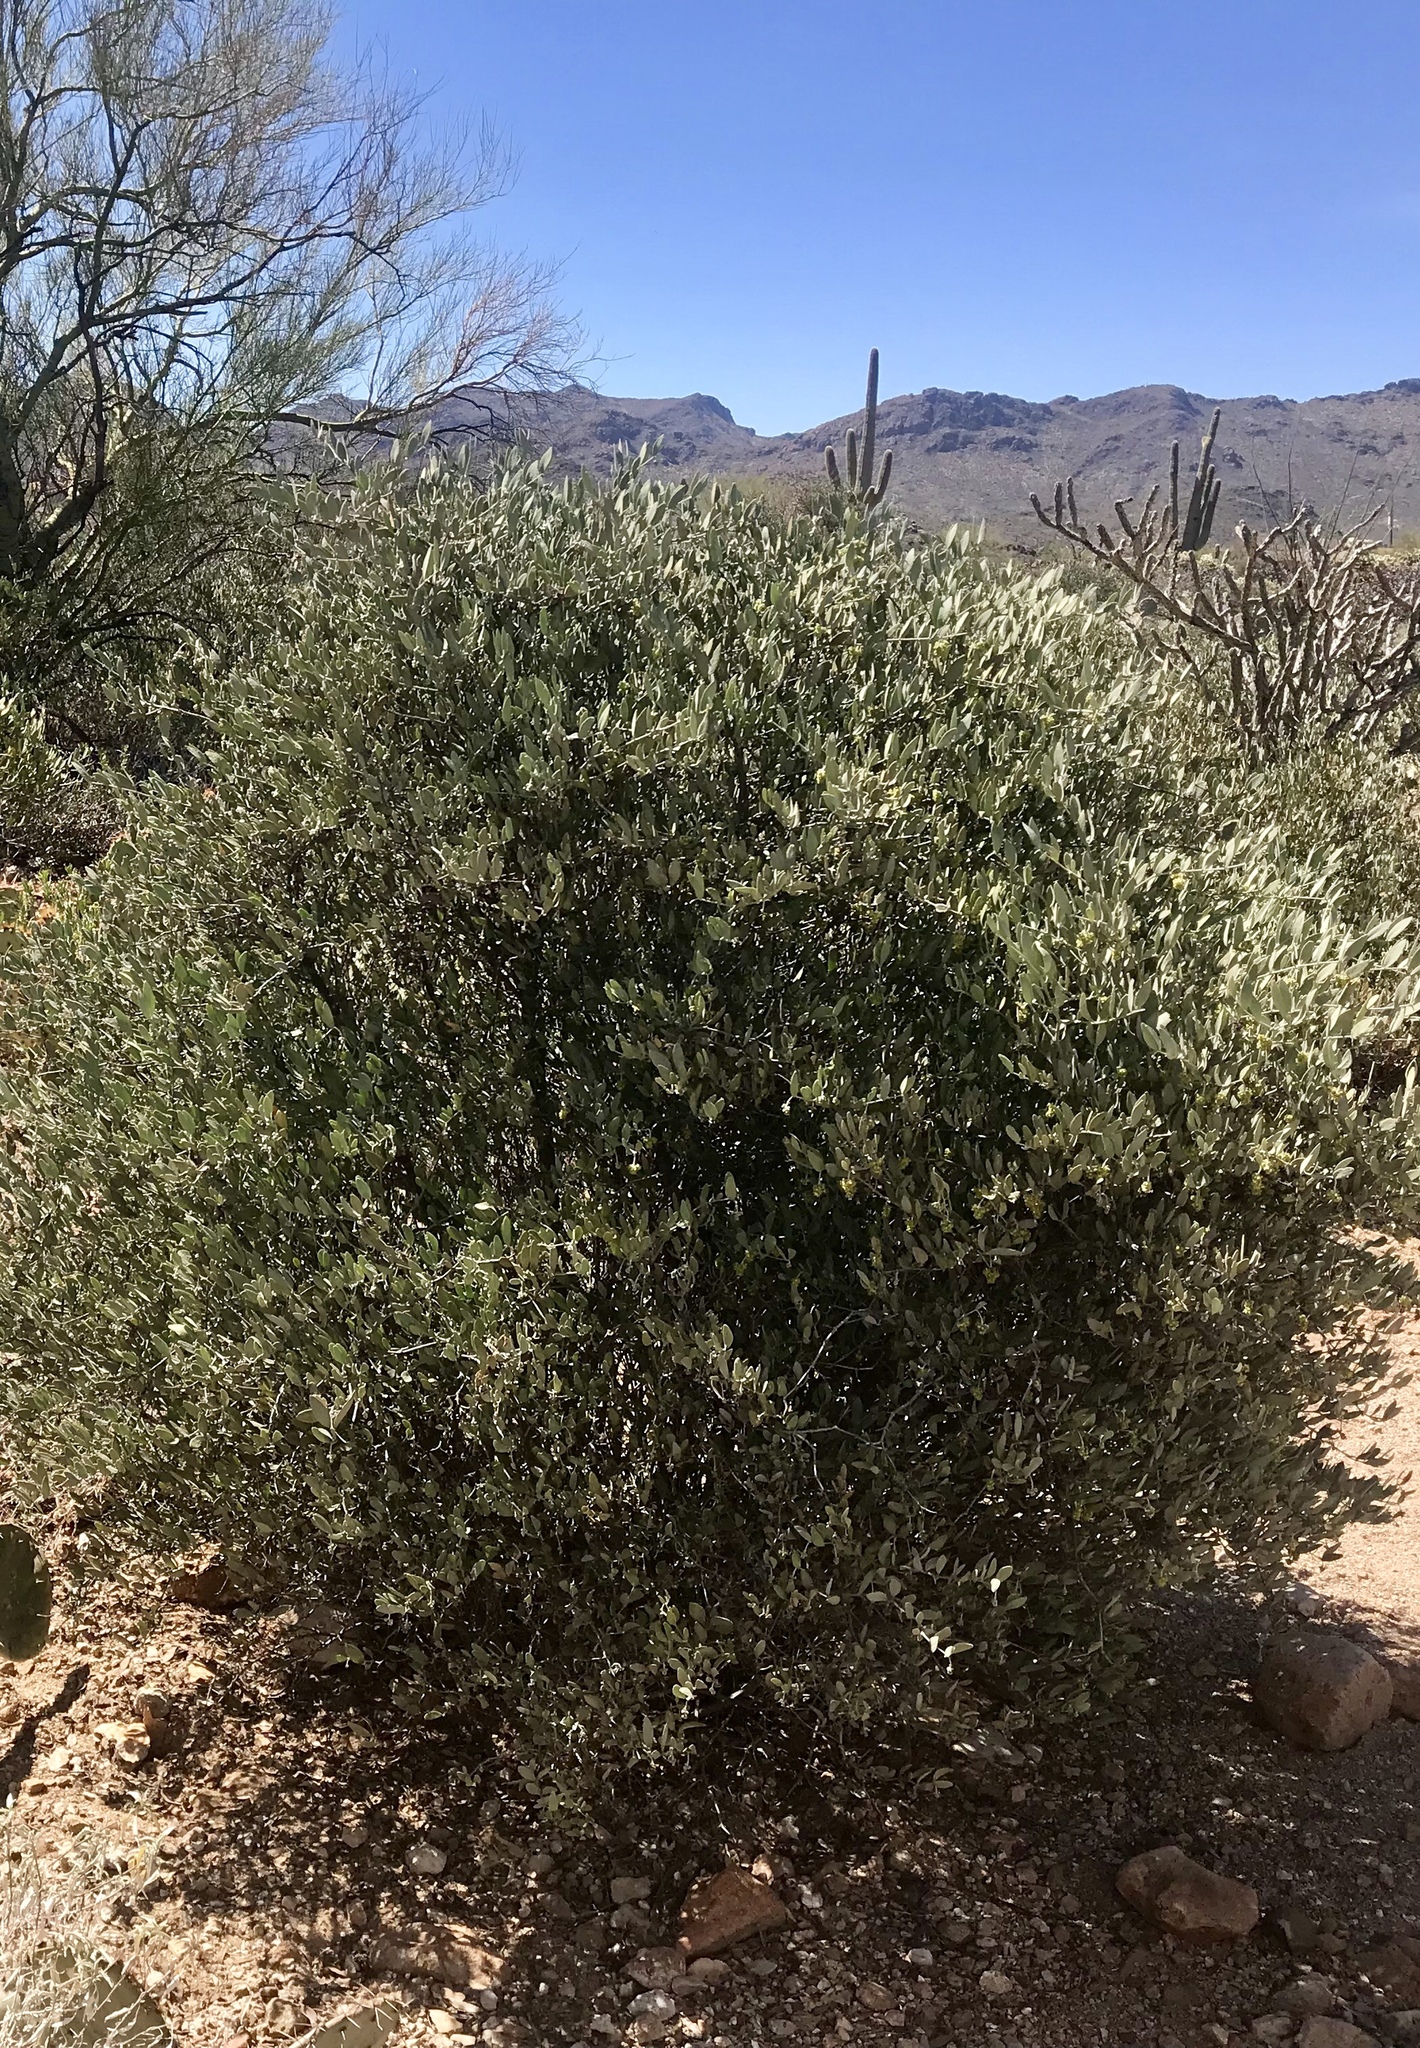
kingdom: Plantae
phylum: Tracheophyta
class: Magnoliopsida
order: Caryophyllales
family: Simmondsiaceae
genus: Simmondsia
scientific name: Simmondsia chinensis
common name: Jojoba
